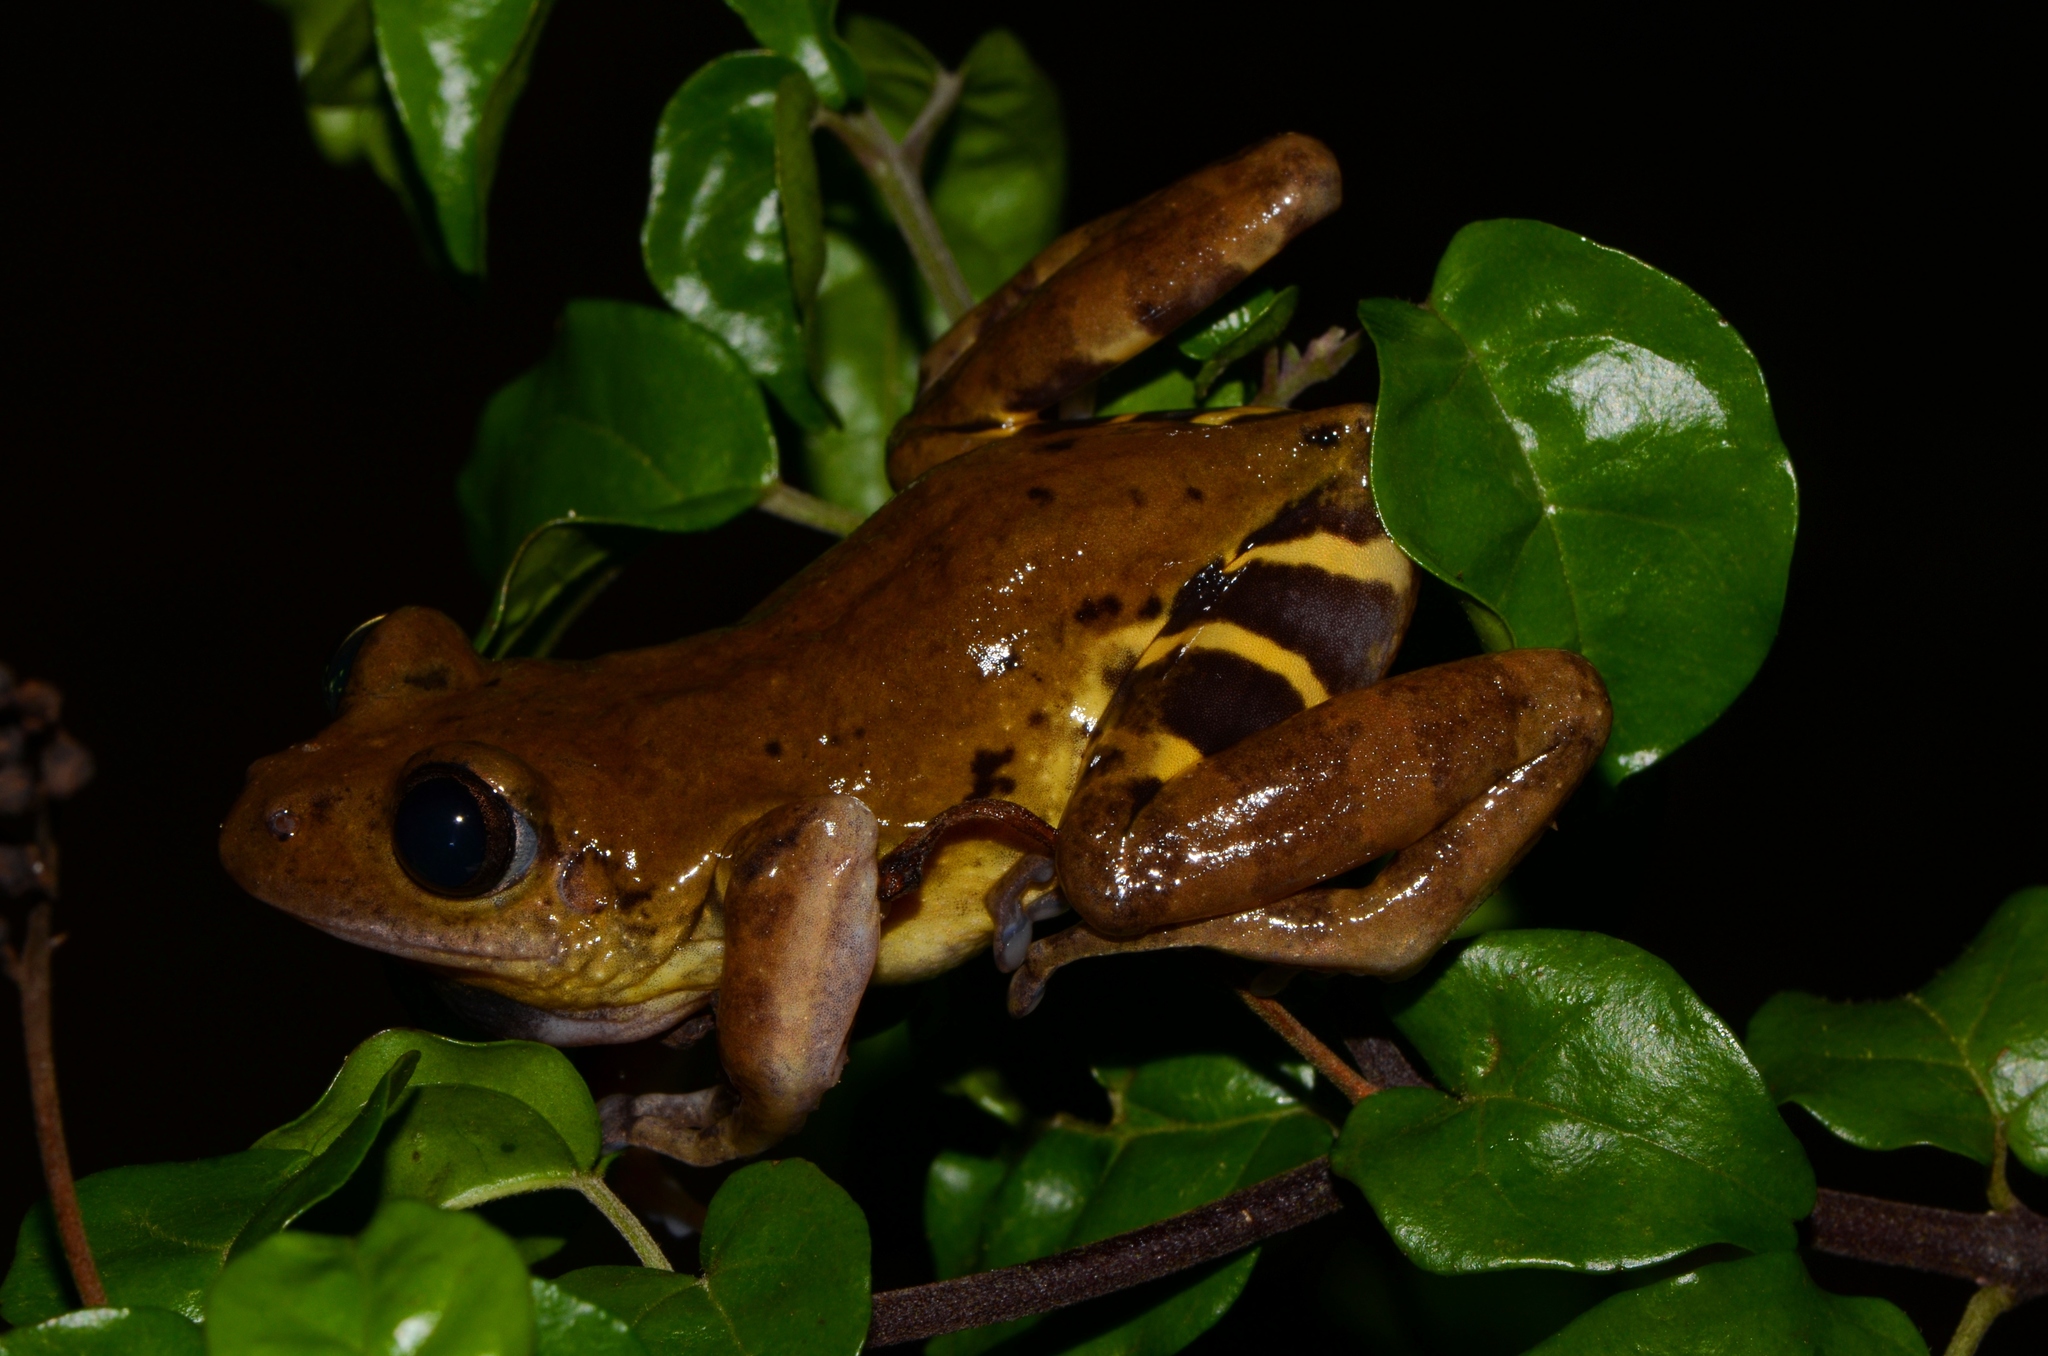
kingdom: Animalia
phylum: Chordata
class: Amphibia
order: Anura
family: Hyperoliidae
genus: Phlyctimantis
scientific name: Phlyctimantis leonardi
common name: Olive striped frog
